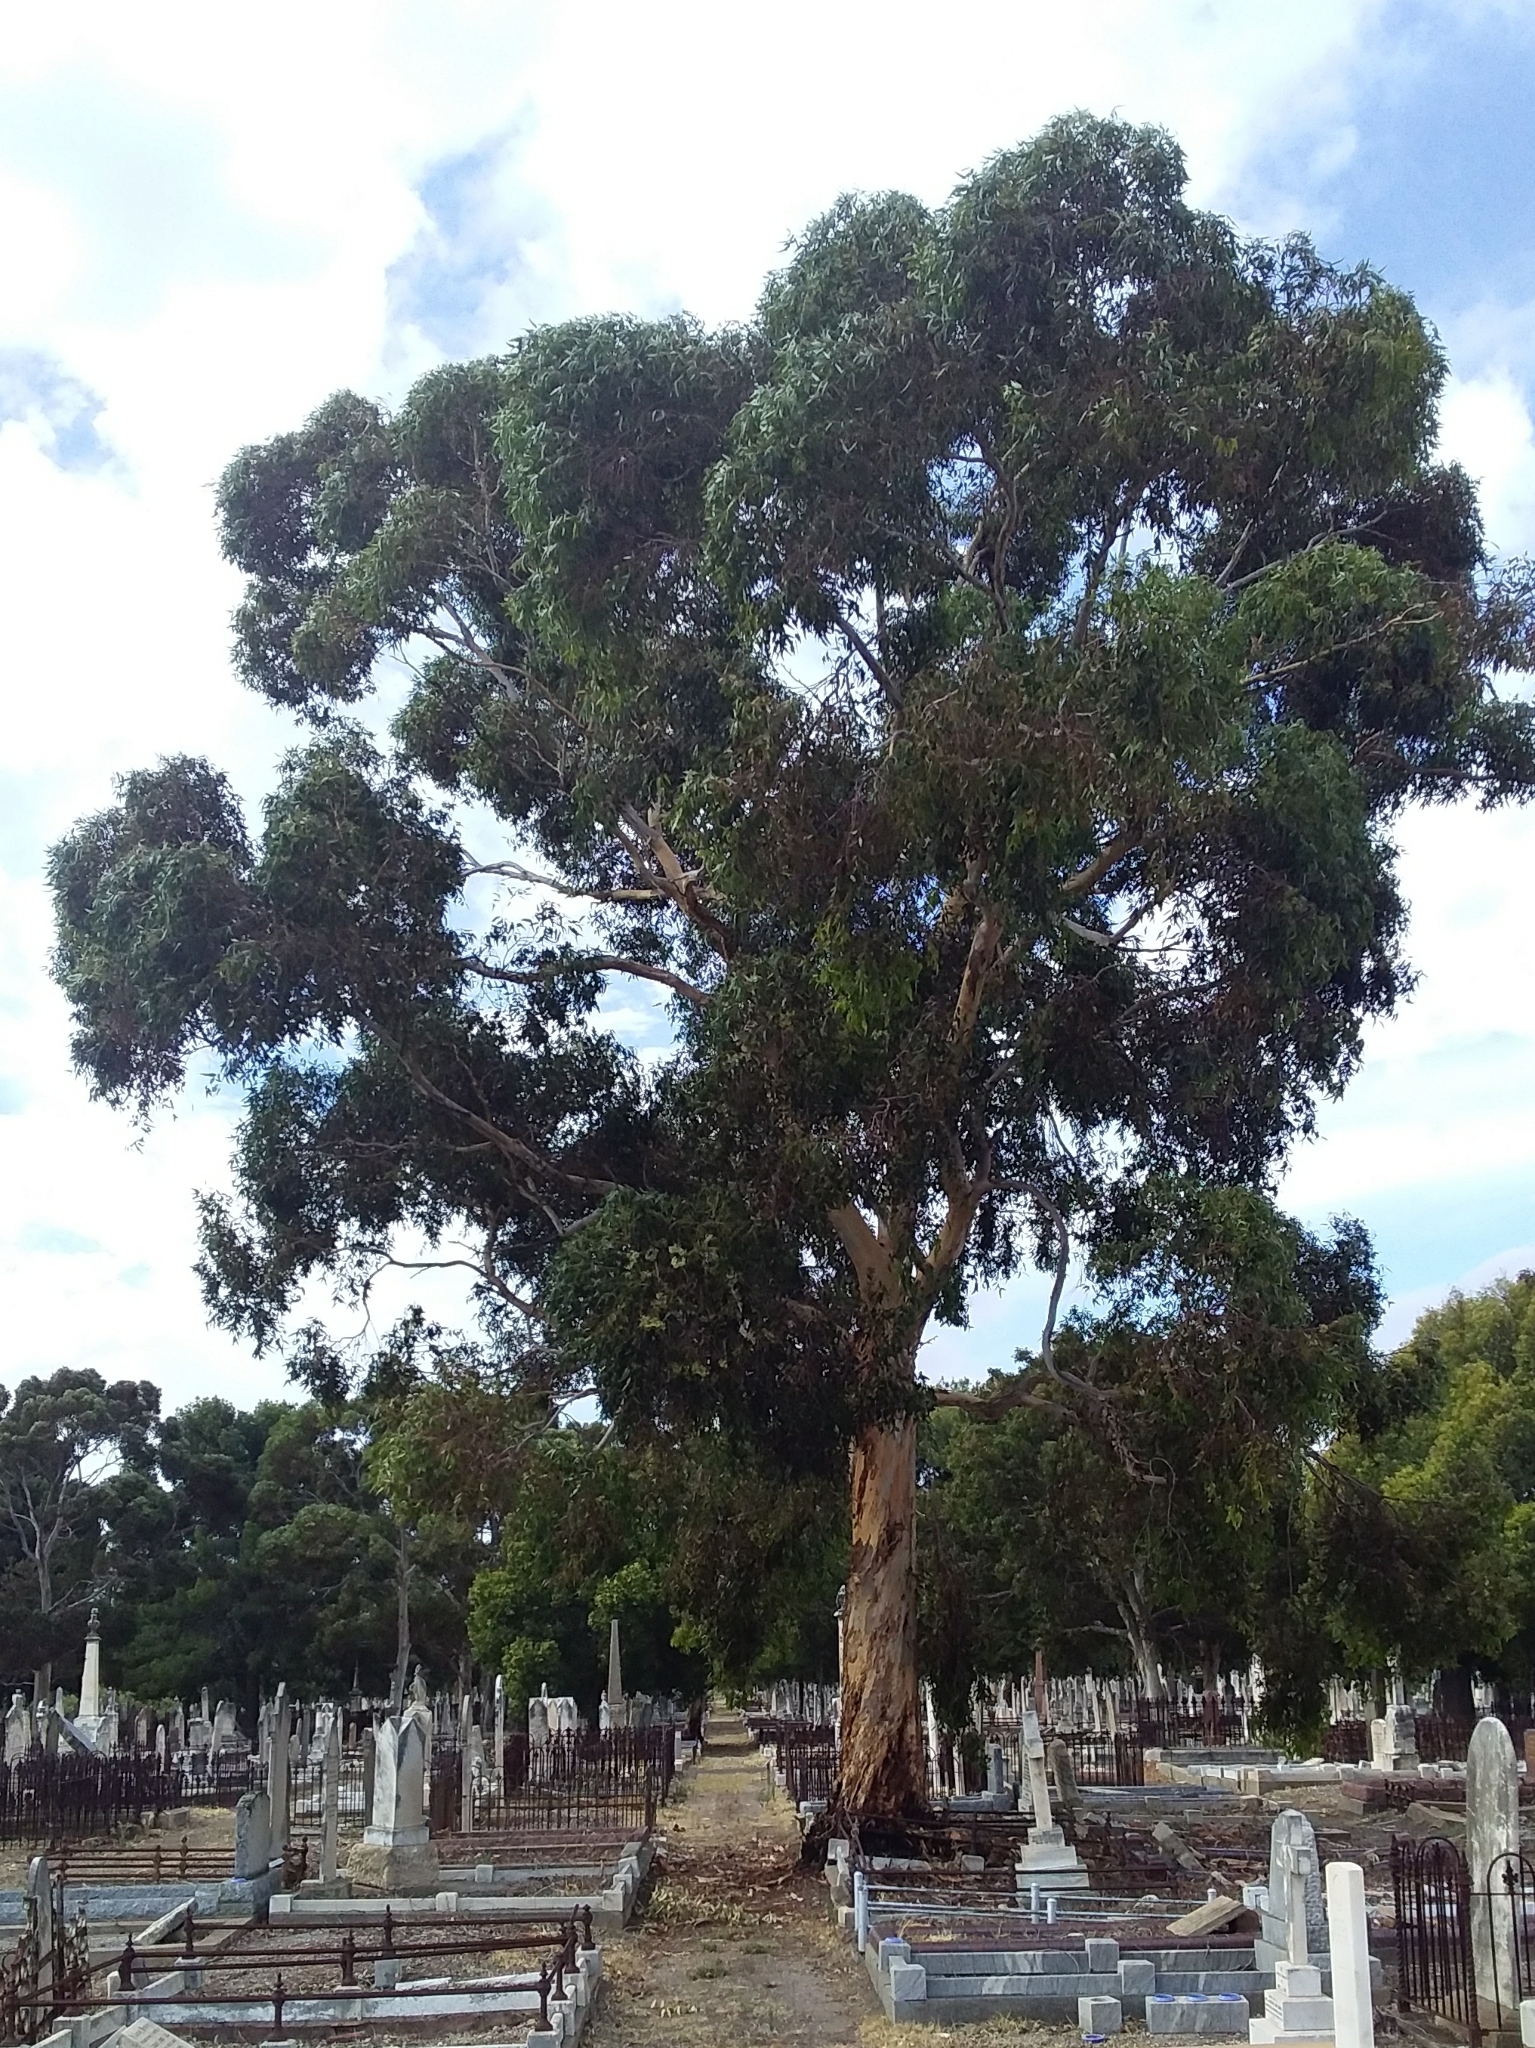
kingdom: Plantae
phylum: Tracheophyta
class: Magnoliopsida
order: Myrtales
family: Myrtaceae
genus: Eucalyptus
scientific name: Eucalyptus cladocalyx
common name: Sugargum
